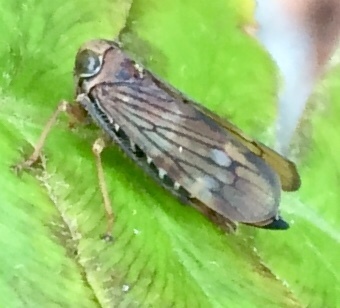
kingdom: Animalia
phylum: Arthropoda
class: Insecta
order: Hemiptera
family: Cicadellidae
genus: Jikradia
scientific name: Jikradia olitoria
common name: Coppery leafhopper
